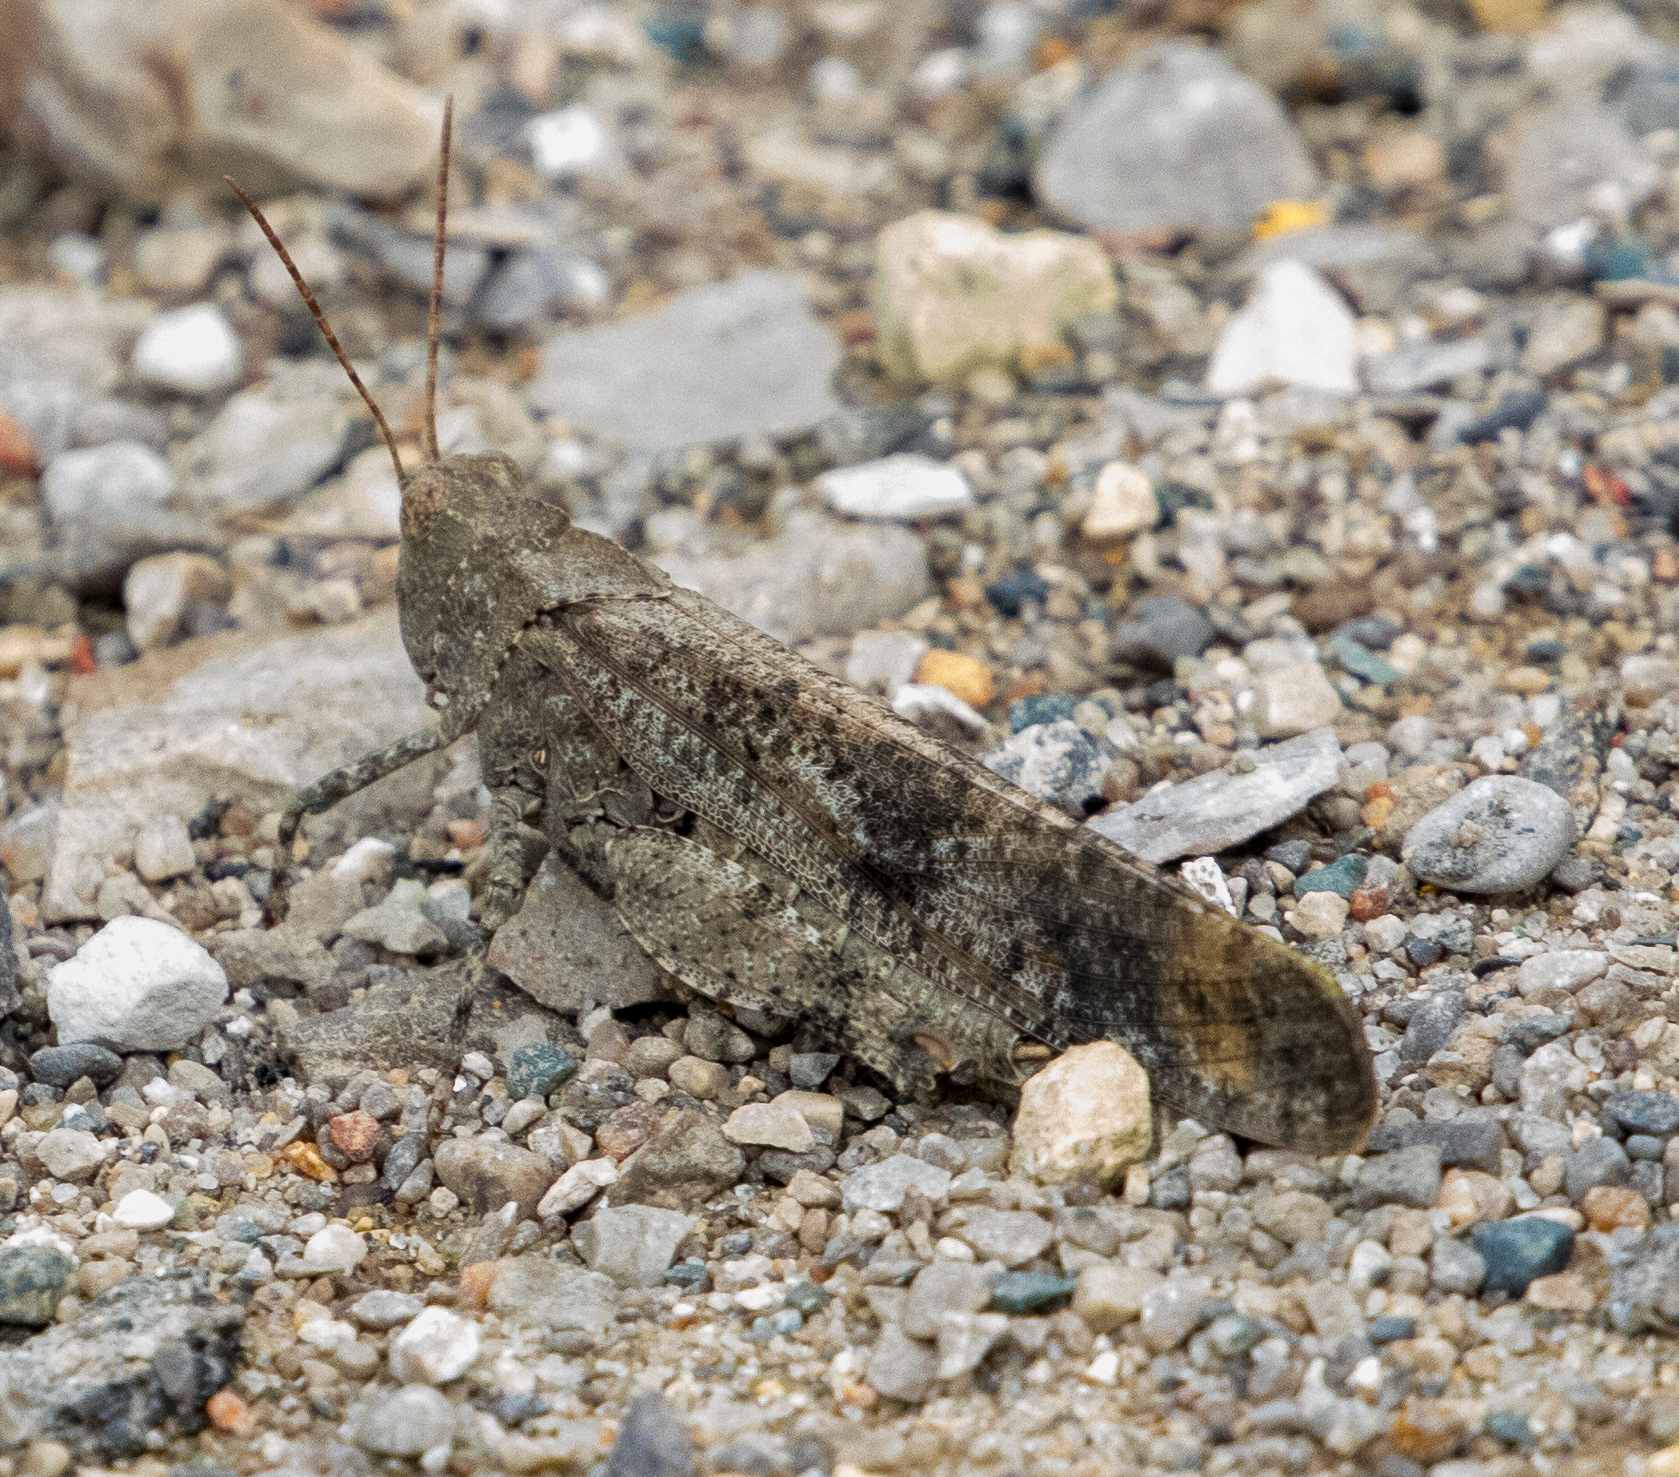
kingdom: Animalia
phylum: Arthropoda
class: Insecta
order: Orthoptera
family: Acrididae
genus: Dissosteira
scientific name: Dissosteira carolina
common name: Carolina grasshopper
